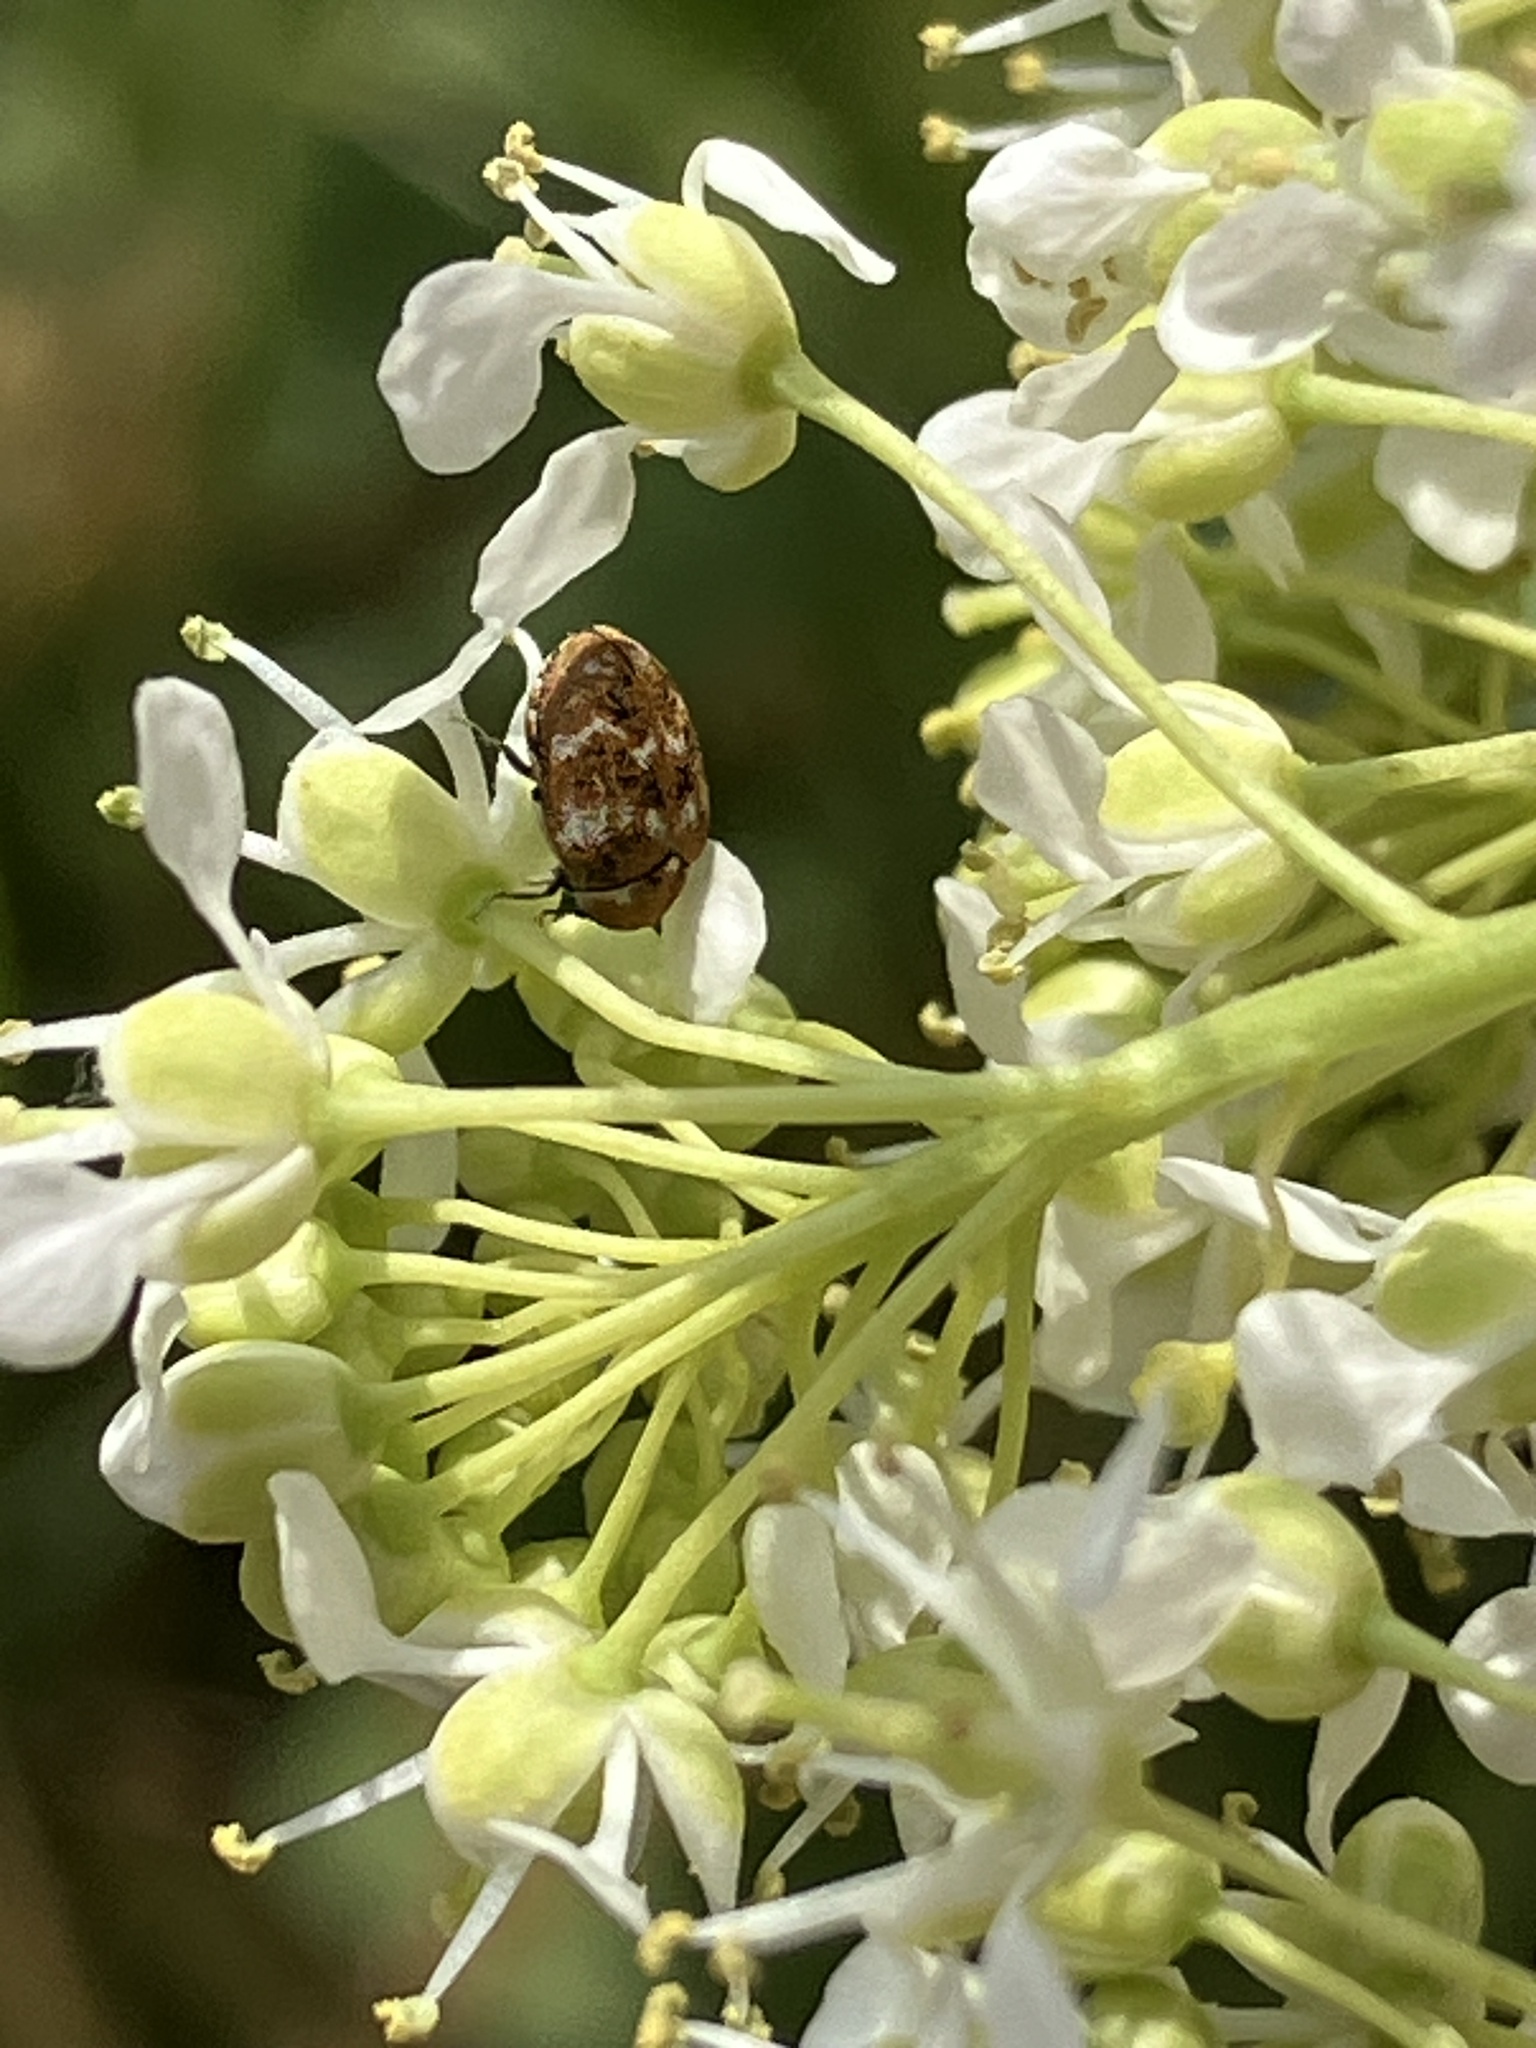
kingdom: Animalia
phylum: Arthropoda
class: Insecta
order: Coleoptera
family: Dermestidae
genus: Anthrenus
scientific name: Anthrenus verbasci
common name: Varied carpet beetle
